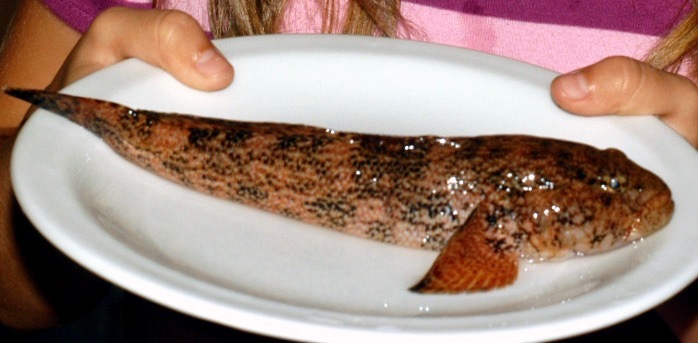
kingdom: Animalia
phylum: Chordata
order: Perciformes
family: Gobiidae
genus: Gobius
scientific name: Gobius cobitis
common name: Giant goby
